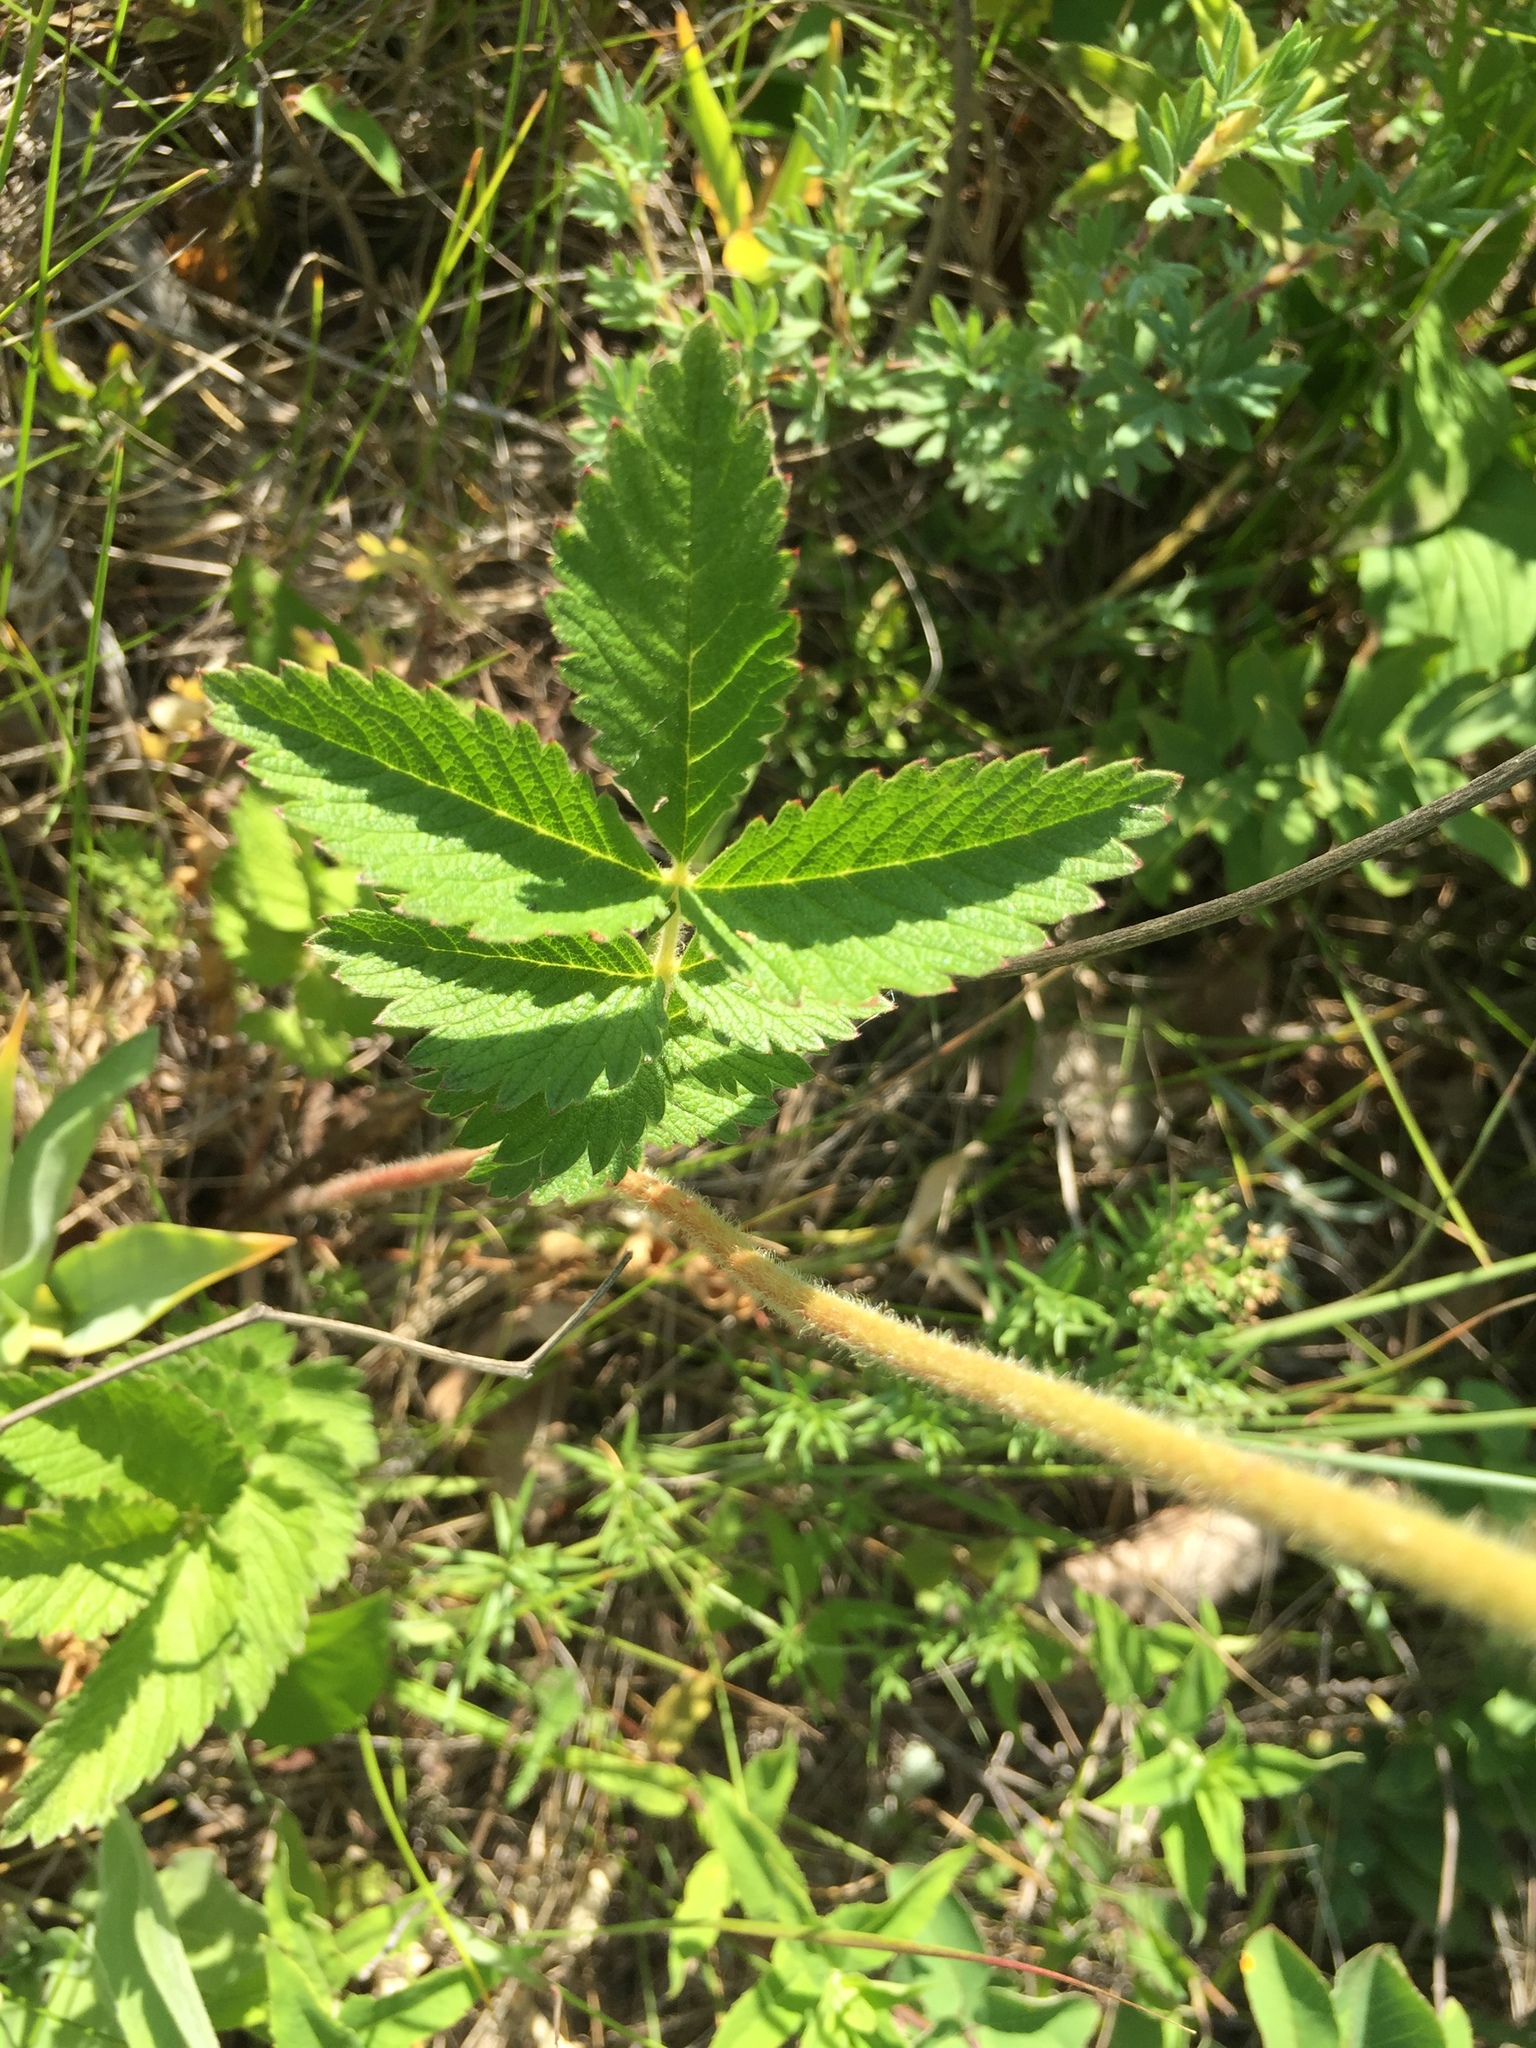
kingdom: Plantae
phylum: Tracheophyta
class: Magnoliopsida
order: Rosales
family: Rosaceae
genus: Drymocallis
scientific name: Drymocallis arguta
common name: Tall cinquefoil
